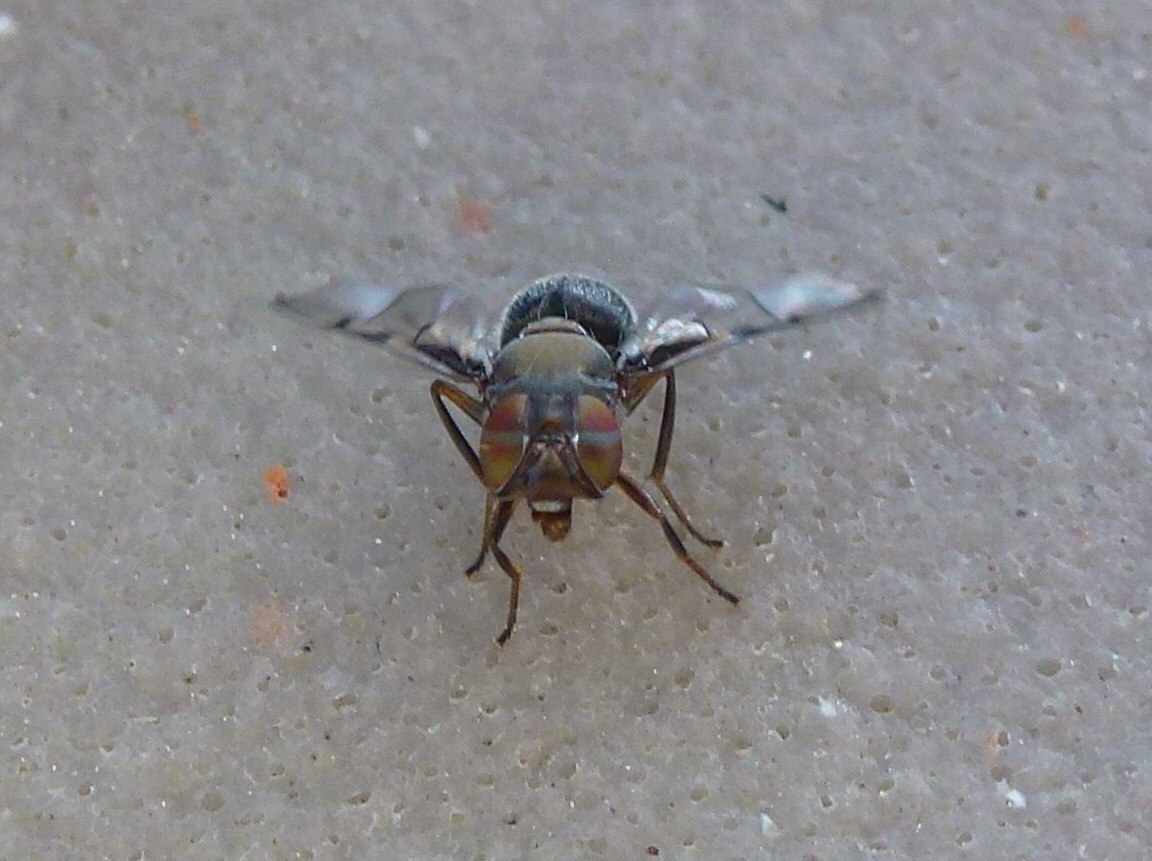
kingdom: Animalia
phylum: Arthropoda
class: Insecta
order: Diptera
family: Platystomatidae
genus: Pogonortalis
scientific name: Pogonortalis doclea
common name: Boatman fly
